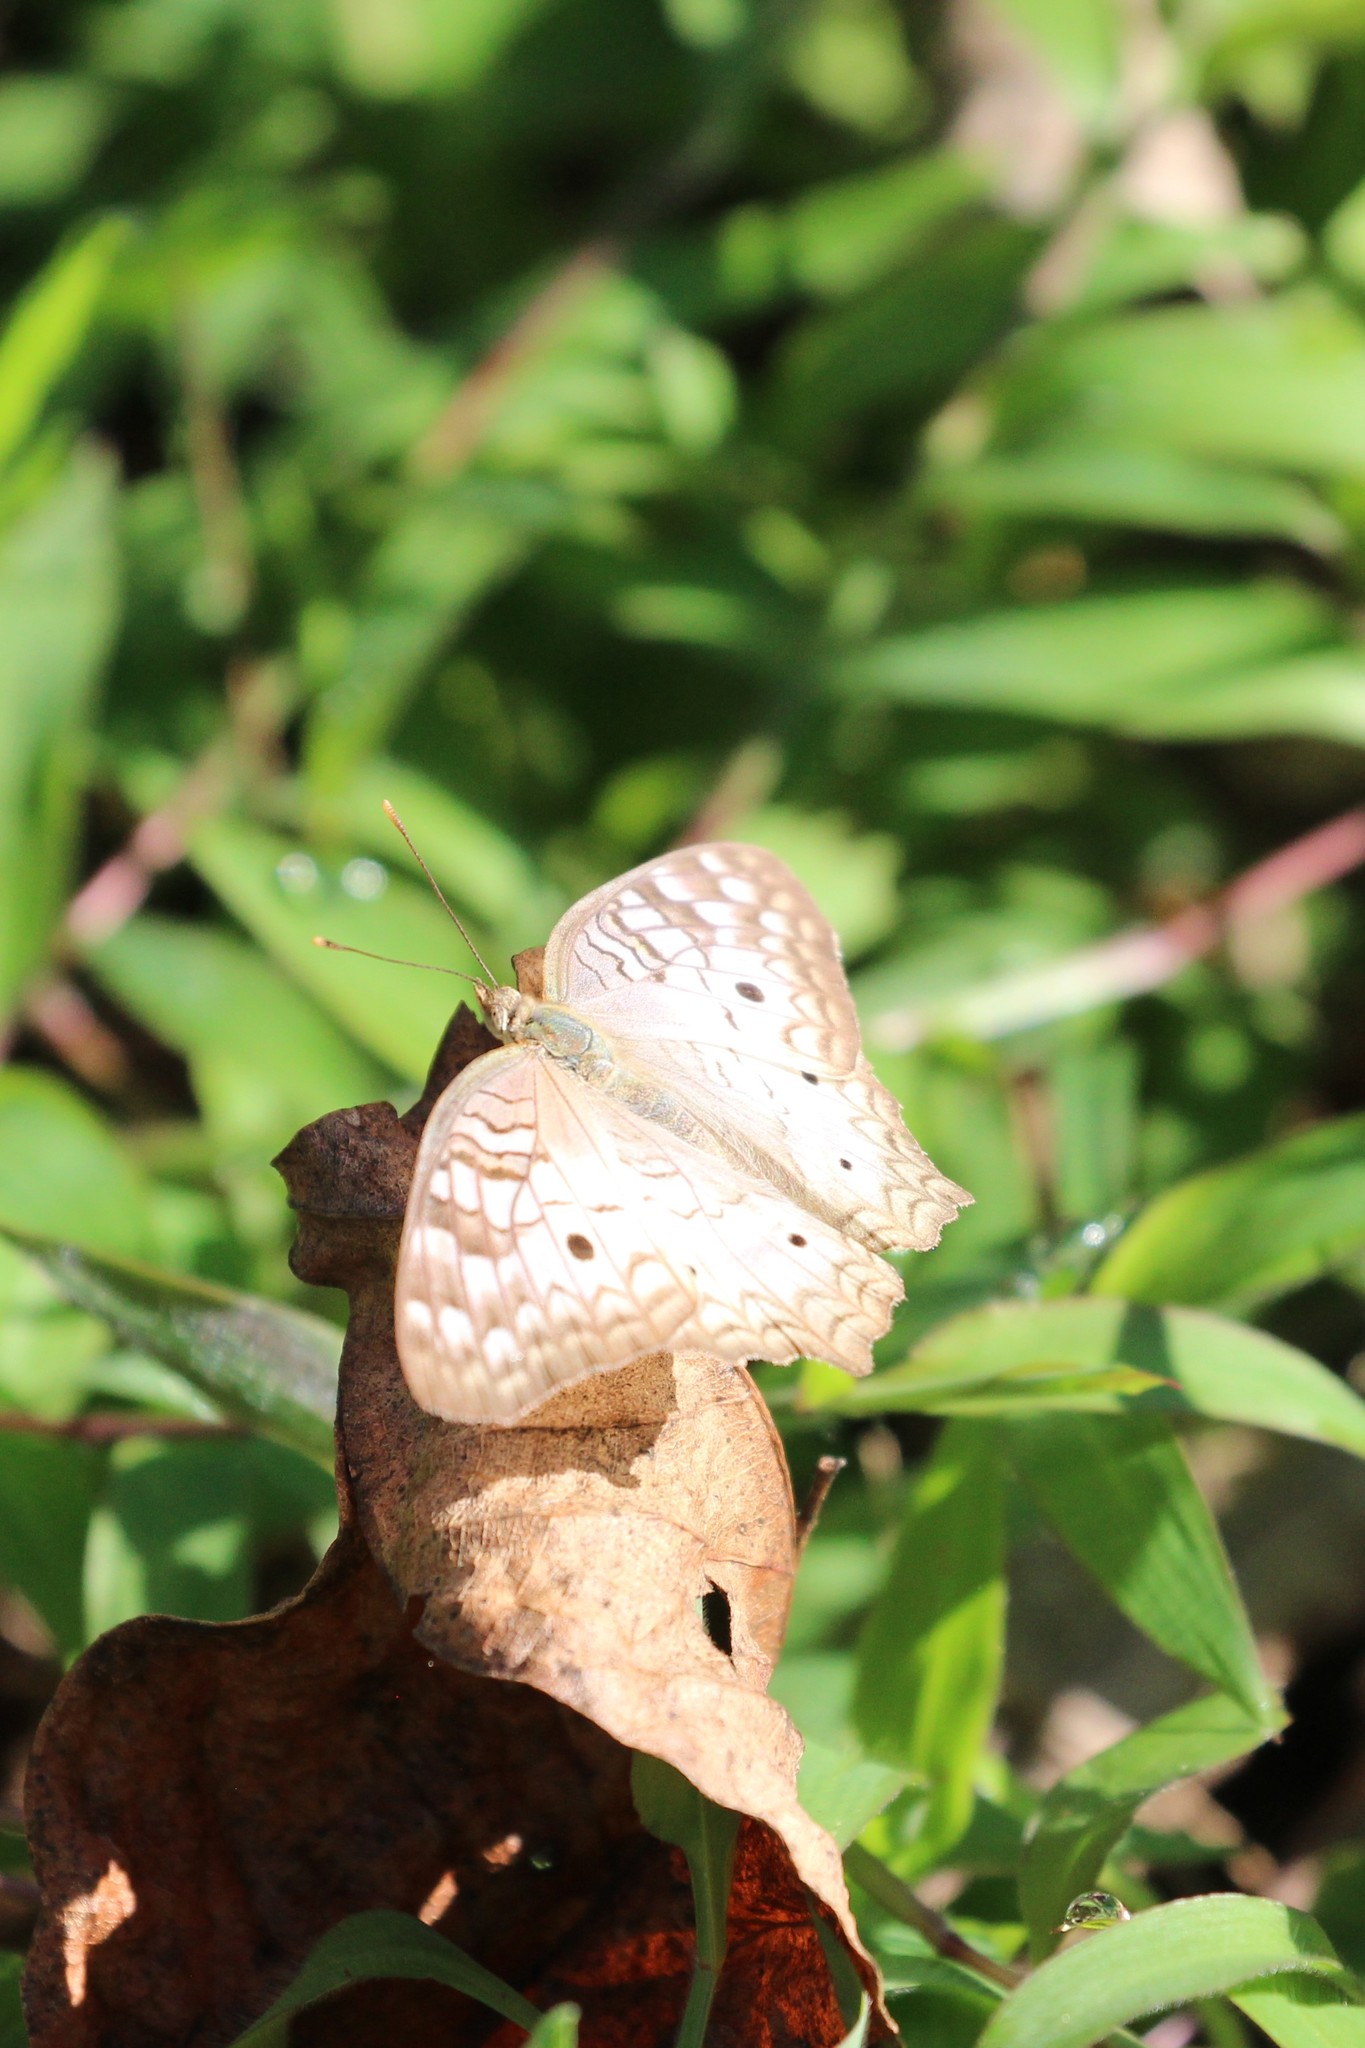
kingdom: Animalia
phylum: Arthropoda
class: Insecta
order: Lepidoptera
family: Nymphalidae
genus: Anartia
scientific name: Anartia jatrophae
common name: White peacock
